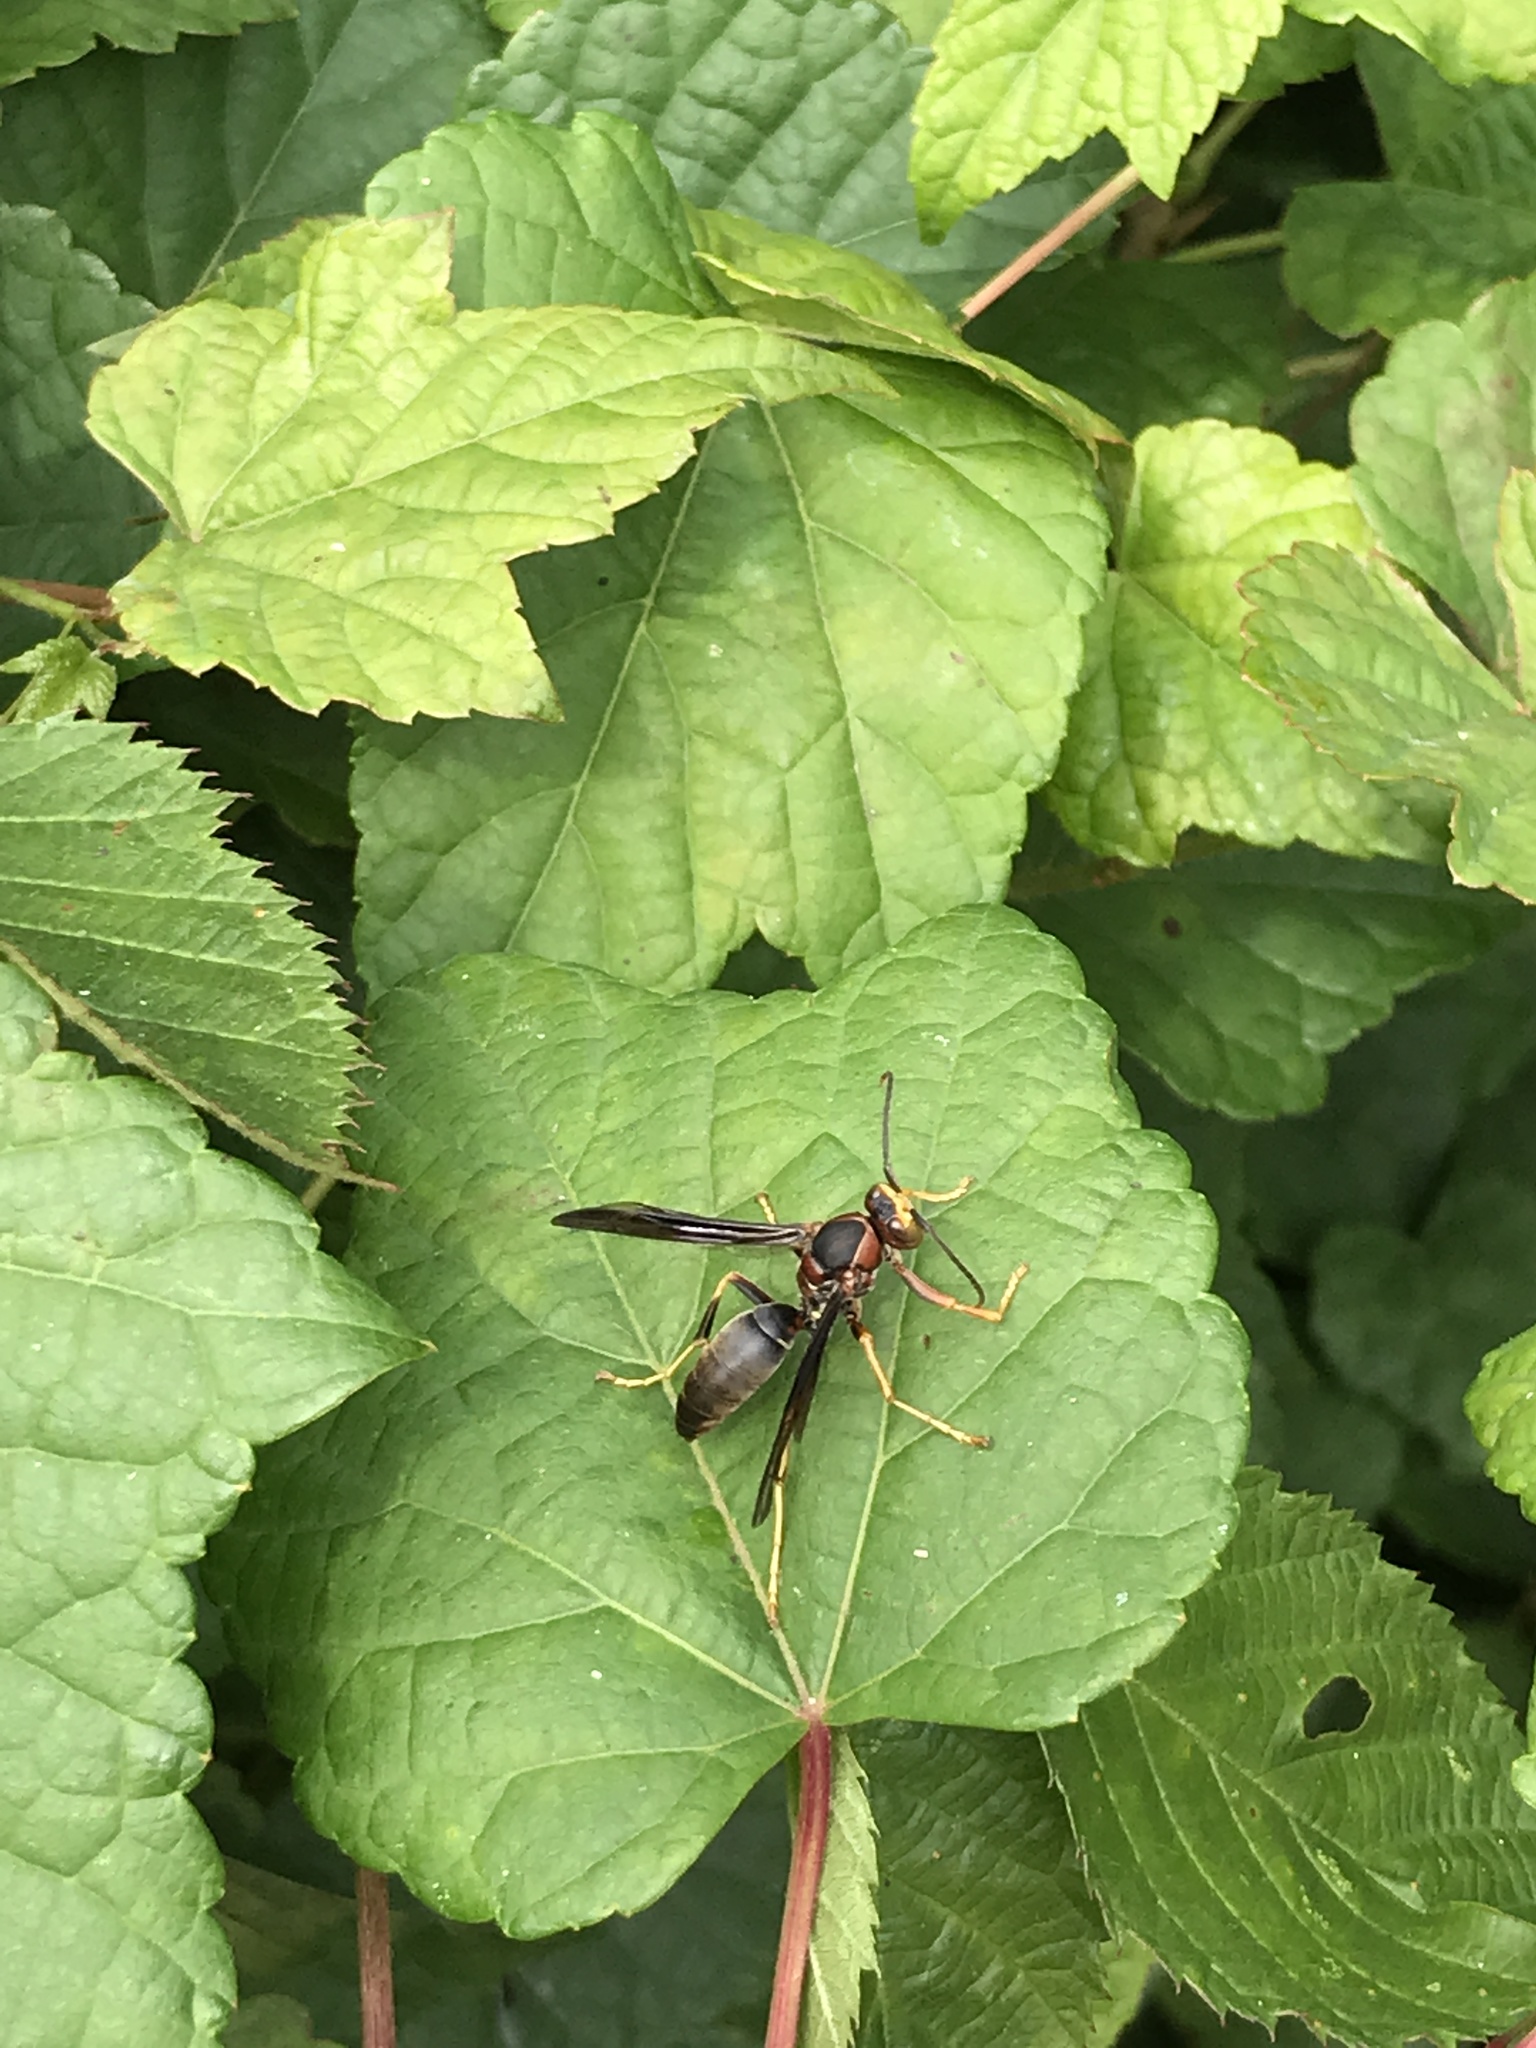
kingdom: Animalia
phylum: Arthropoda
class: Insecta
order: Hymenoptera
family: Eumenidae
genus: Polistes
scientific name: Polistes metricus
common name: Metric paper wasp
